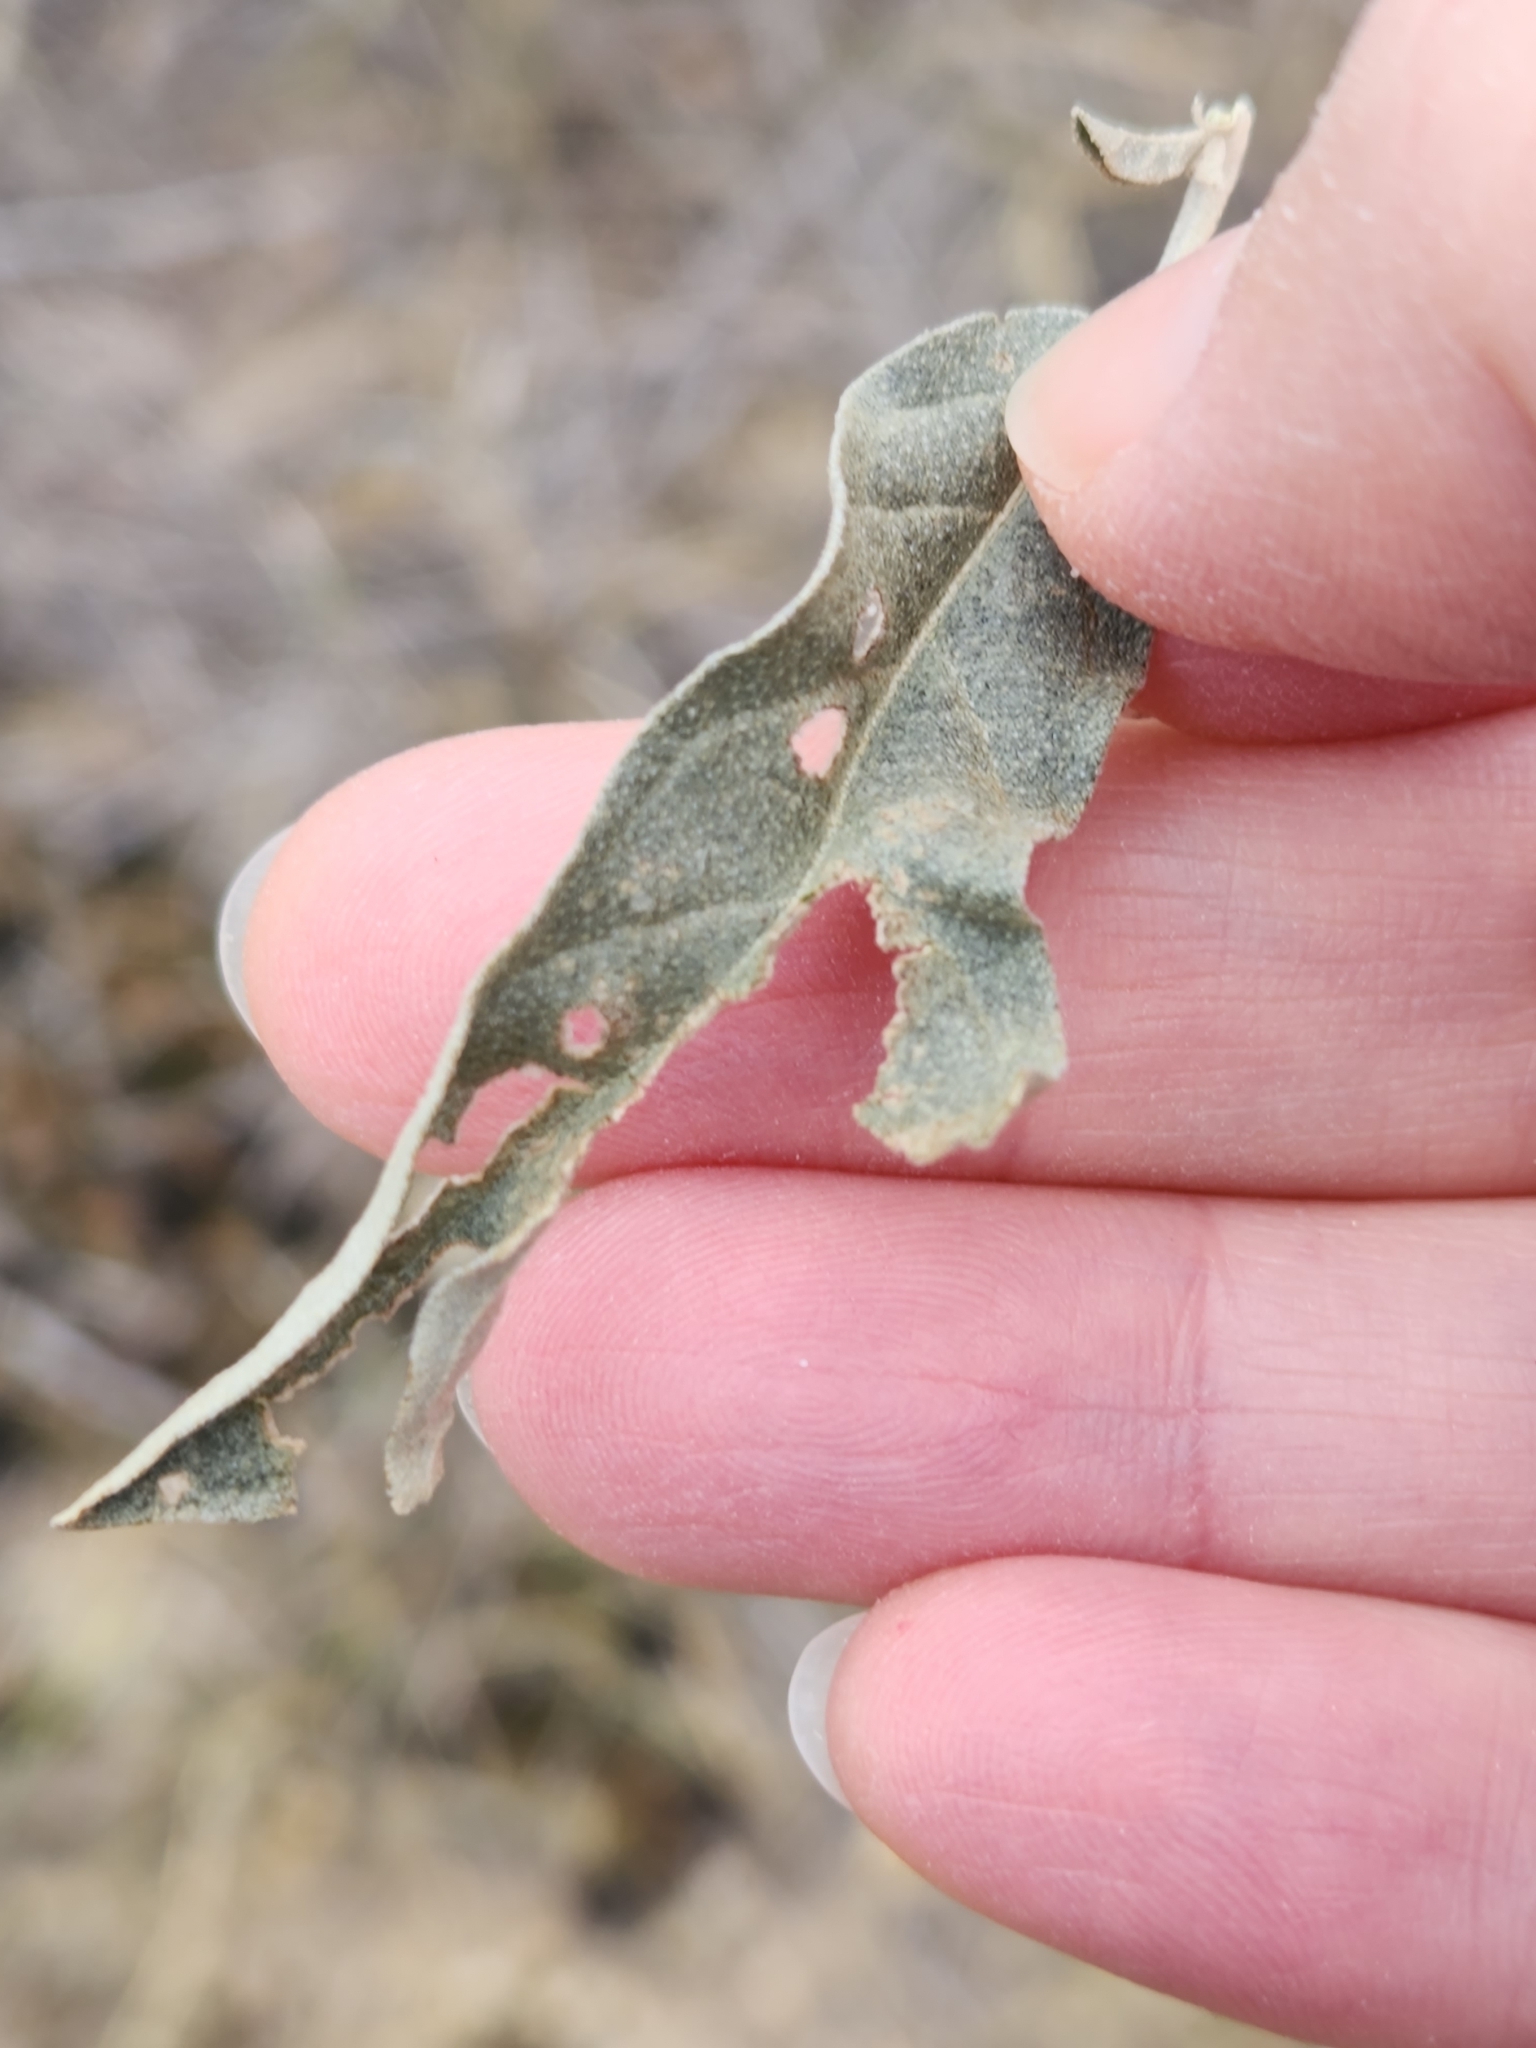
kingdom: Plantae
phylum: Tracheophyta
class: Magnoliopsida
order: Solanales
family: Solanaceae
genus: Solanum
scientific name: Solanum elaeagnifolium
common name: Silverleaf nightshade
